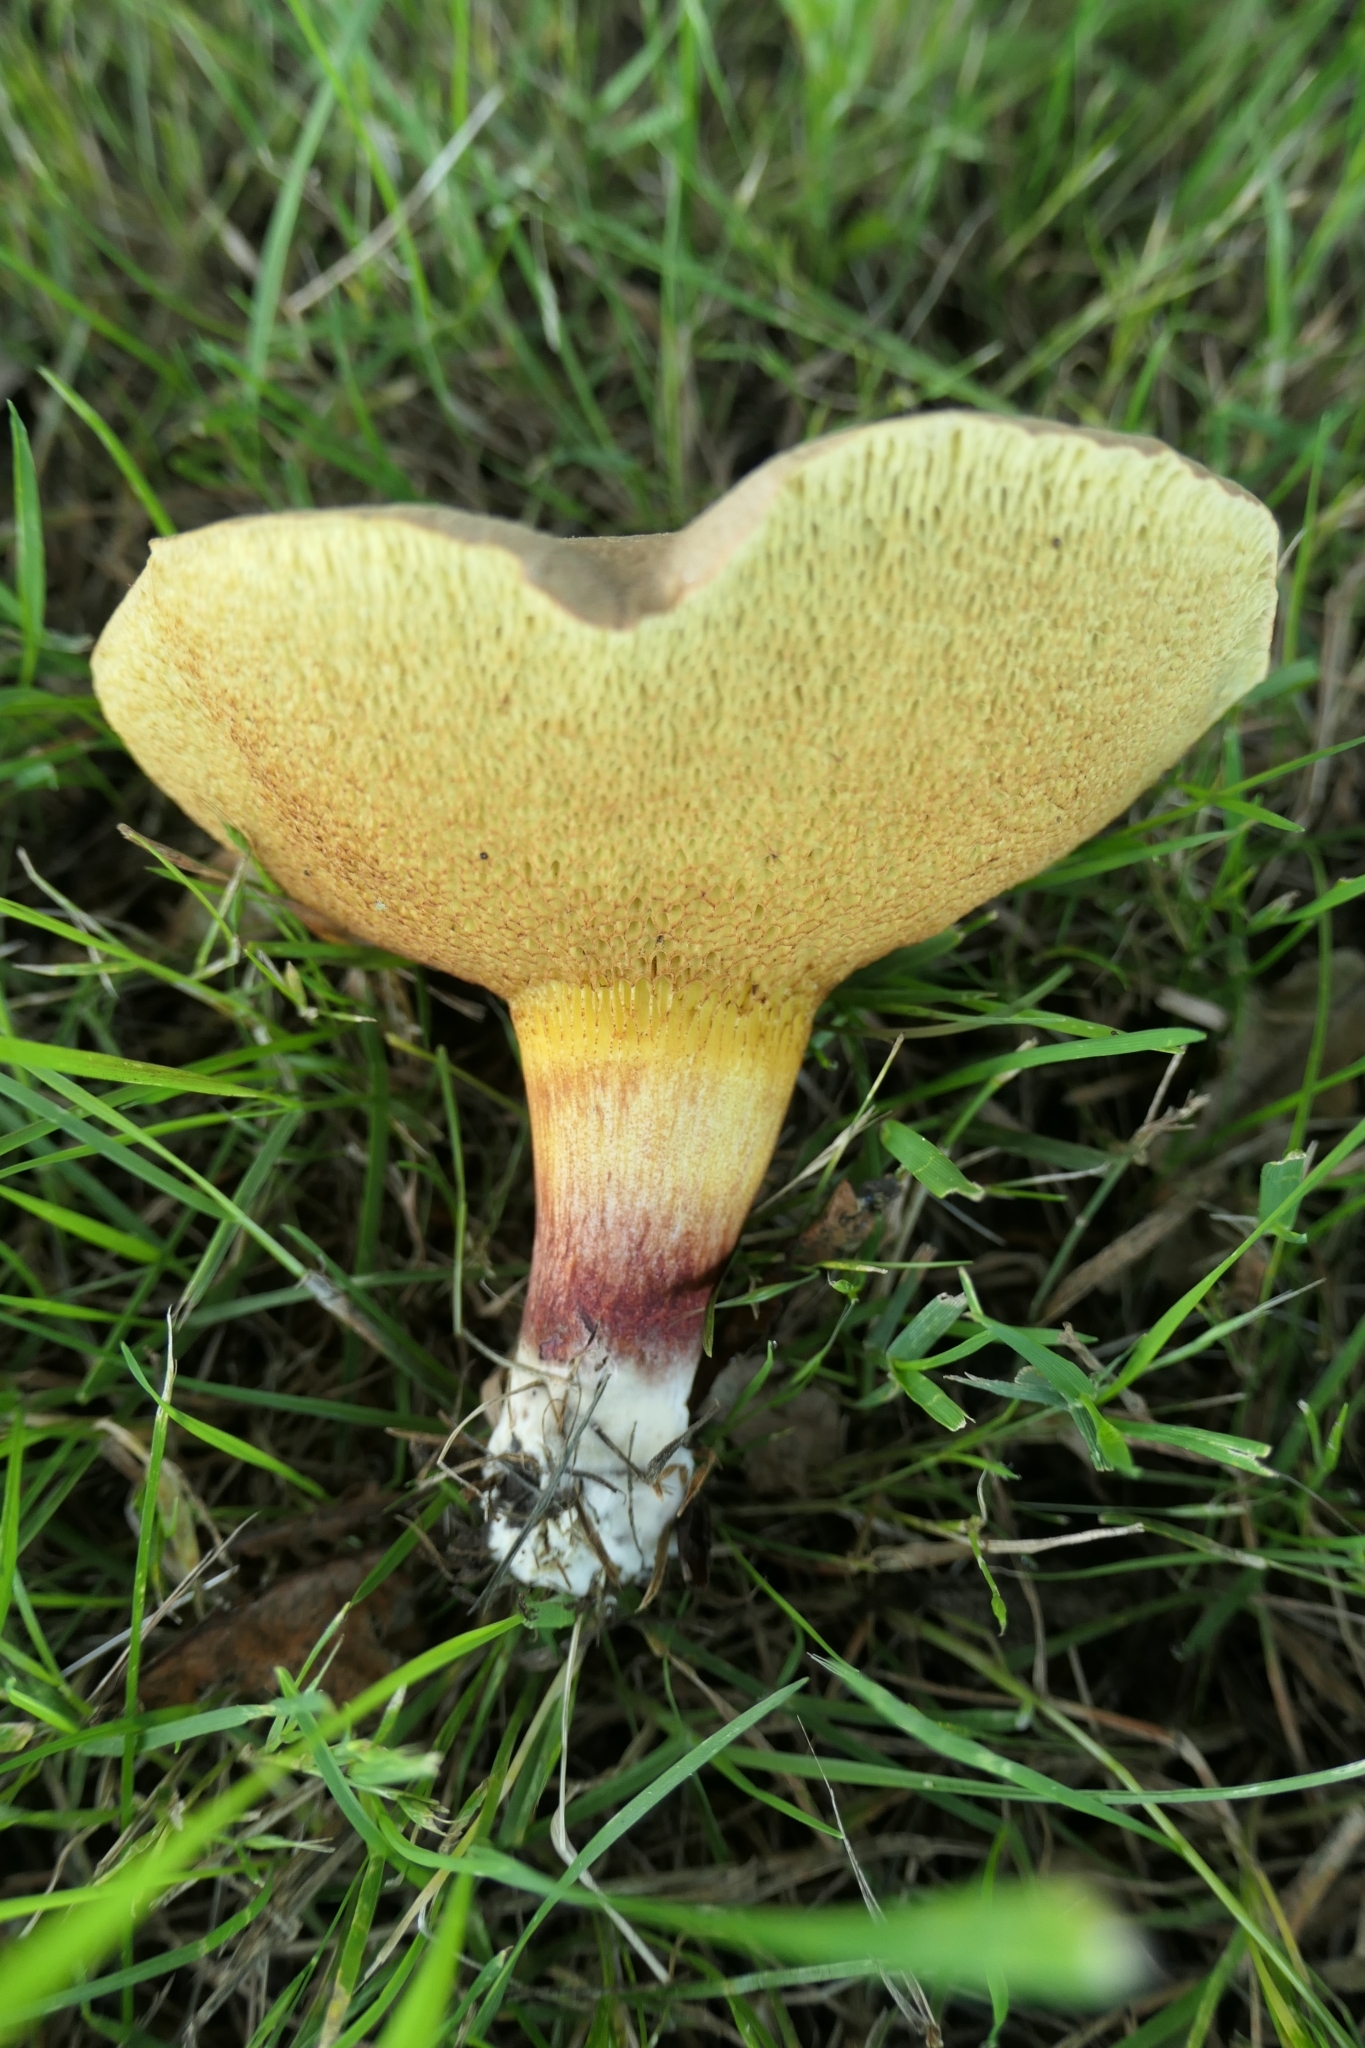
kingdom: Fungi
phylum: Basidiomycota
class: Agaricomycetes
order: Boletales
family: Boletaceae
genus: Xerocomellus
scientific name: Xerocomellus cisalpinus
